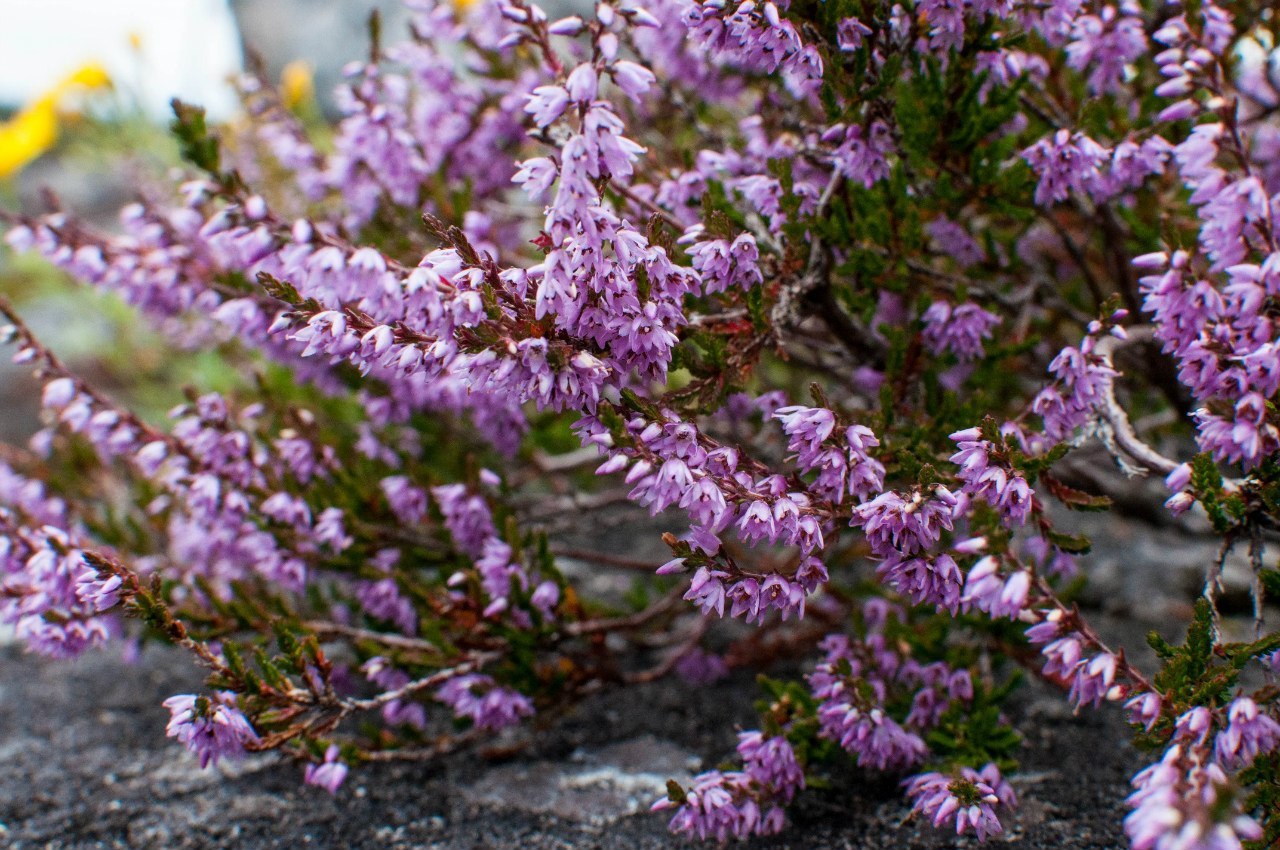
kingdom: Plantae
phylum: Tracheophyta
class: Magnoliopsida
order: Ericales
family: Ericaceae
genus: Calluna
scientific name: Calluna vulgaris
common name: Heather
